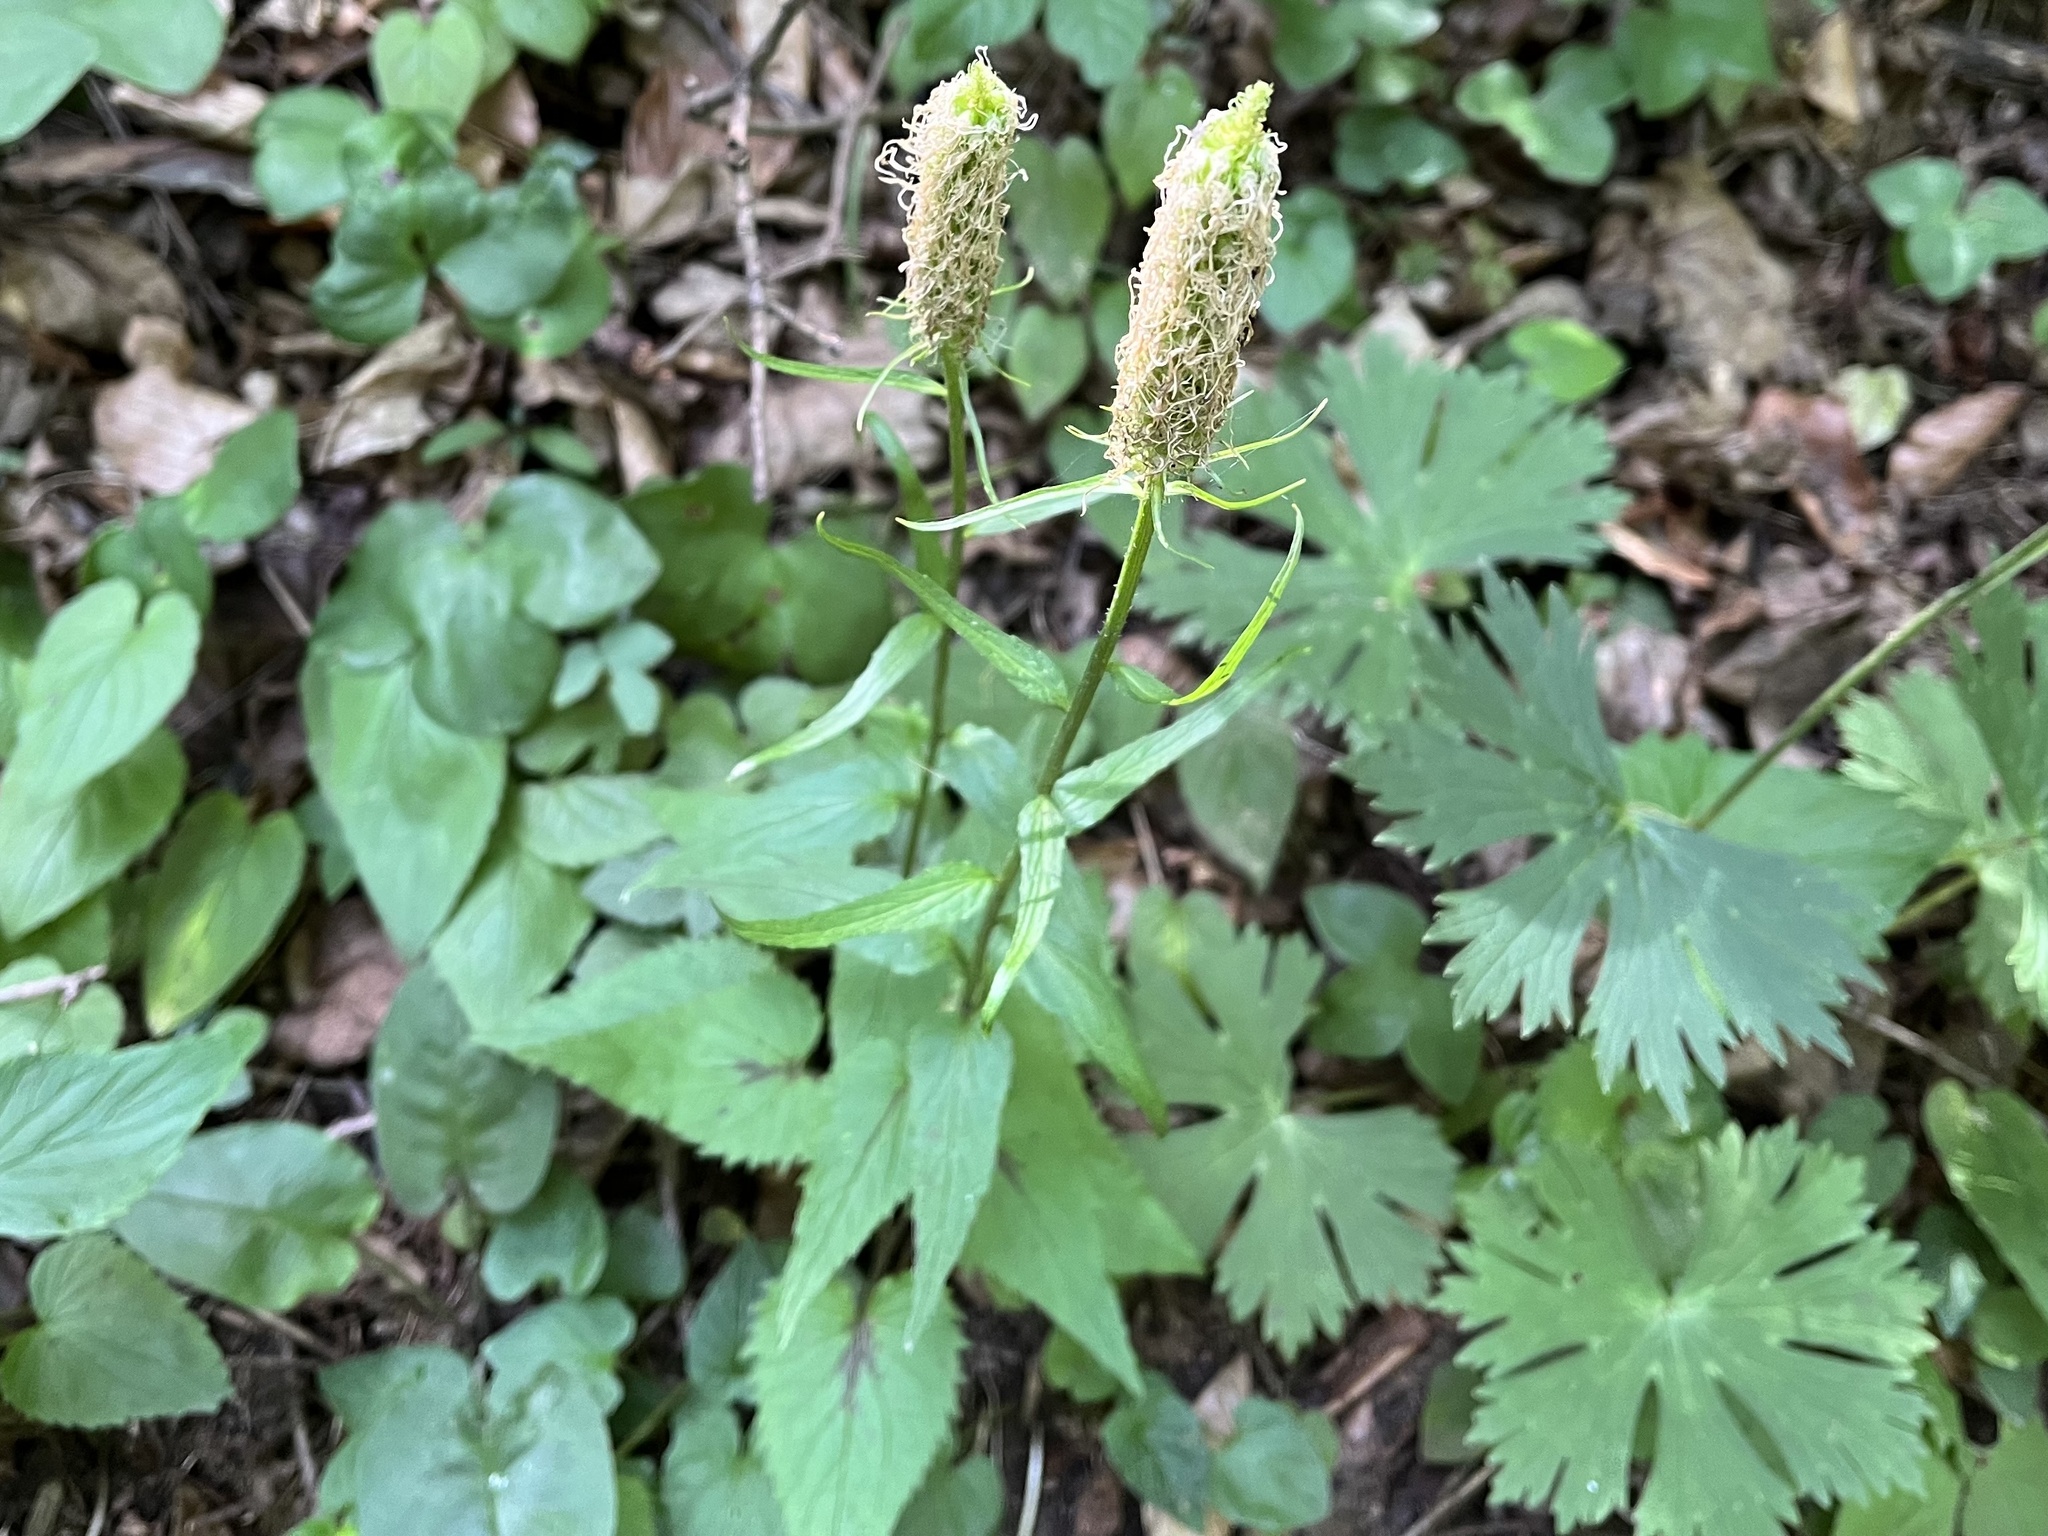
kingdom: Plantae
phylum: Tracheophyta
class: Magnoliopsida
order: Asterales
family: Campanulaceae
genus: Phyteuma
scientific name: Phyteuma spicatum
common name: Spiked rampion
